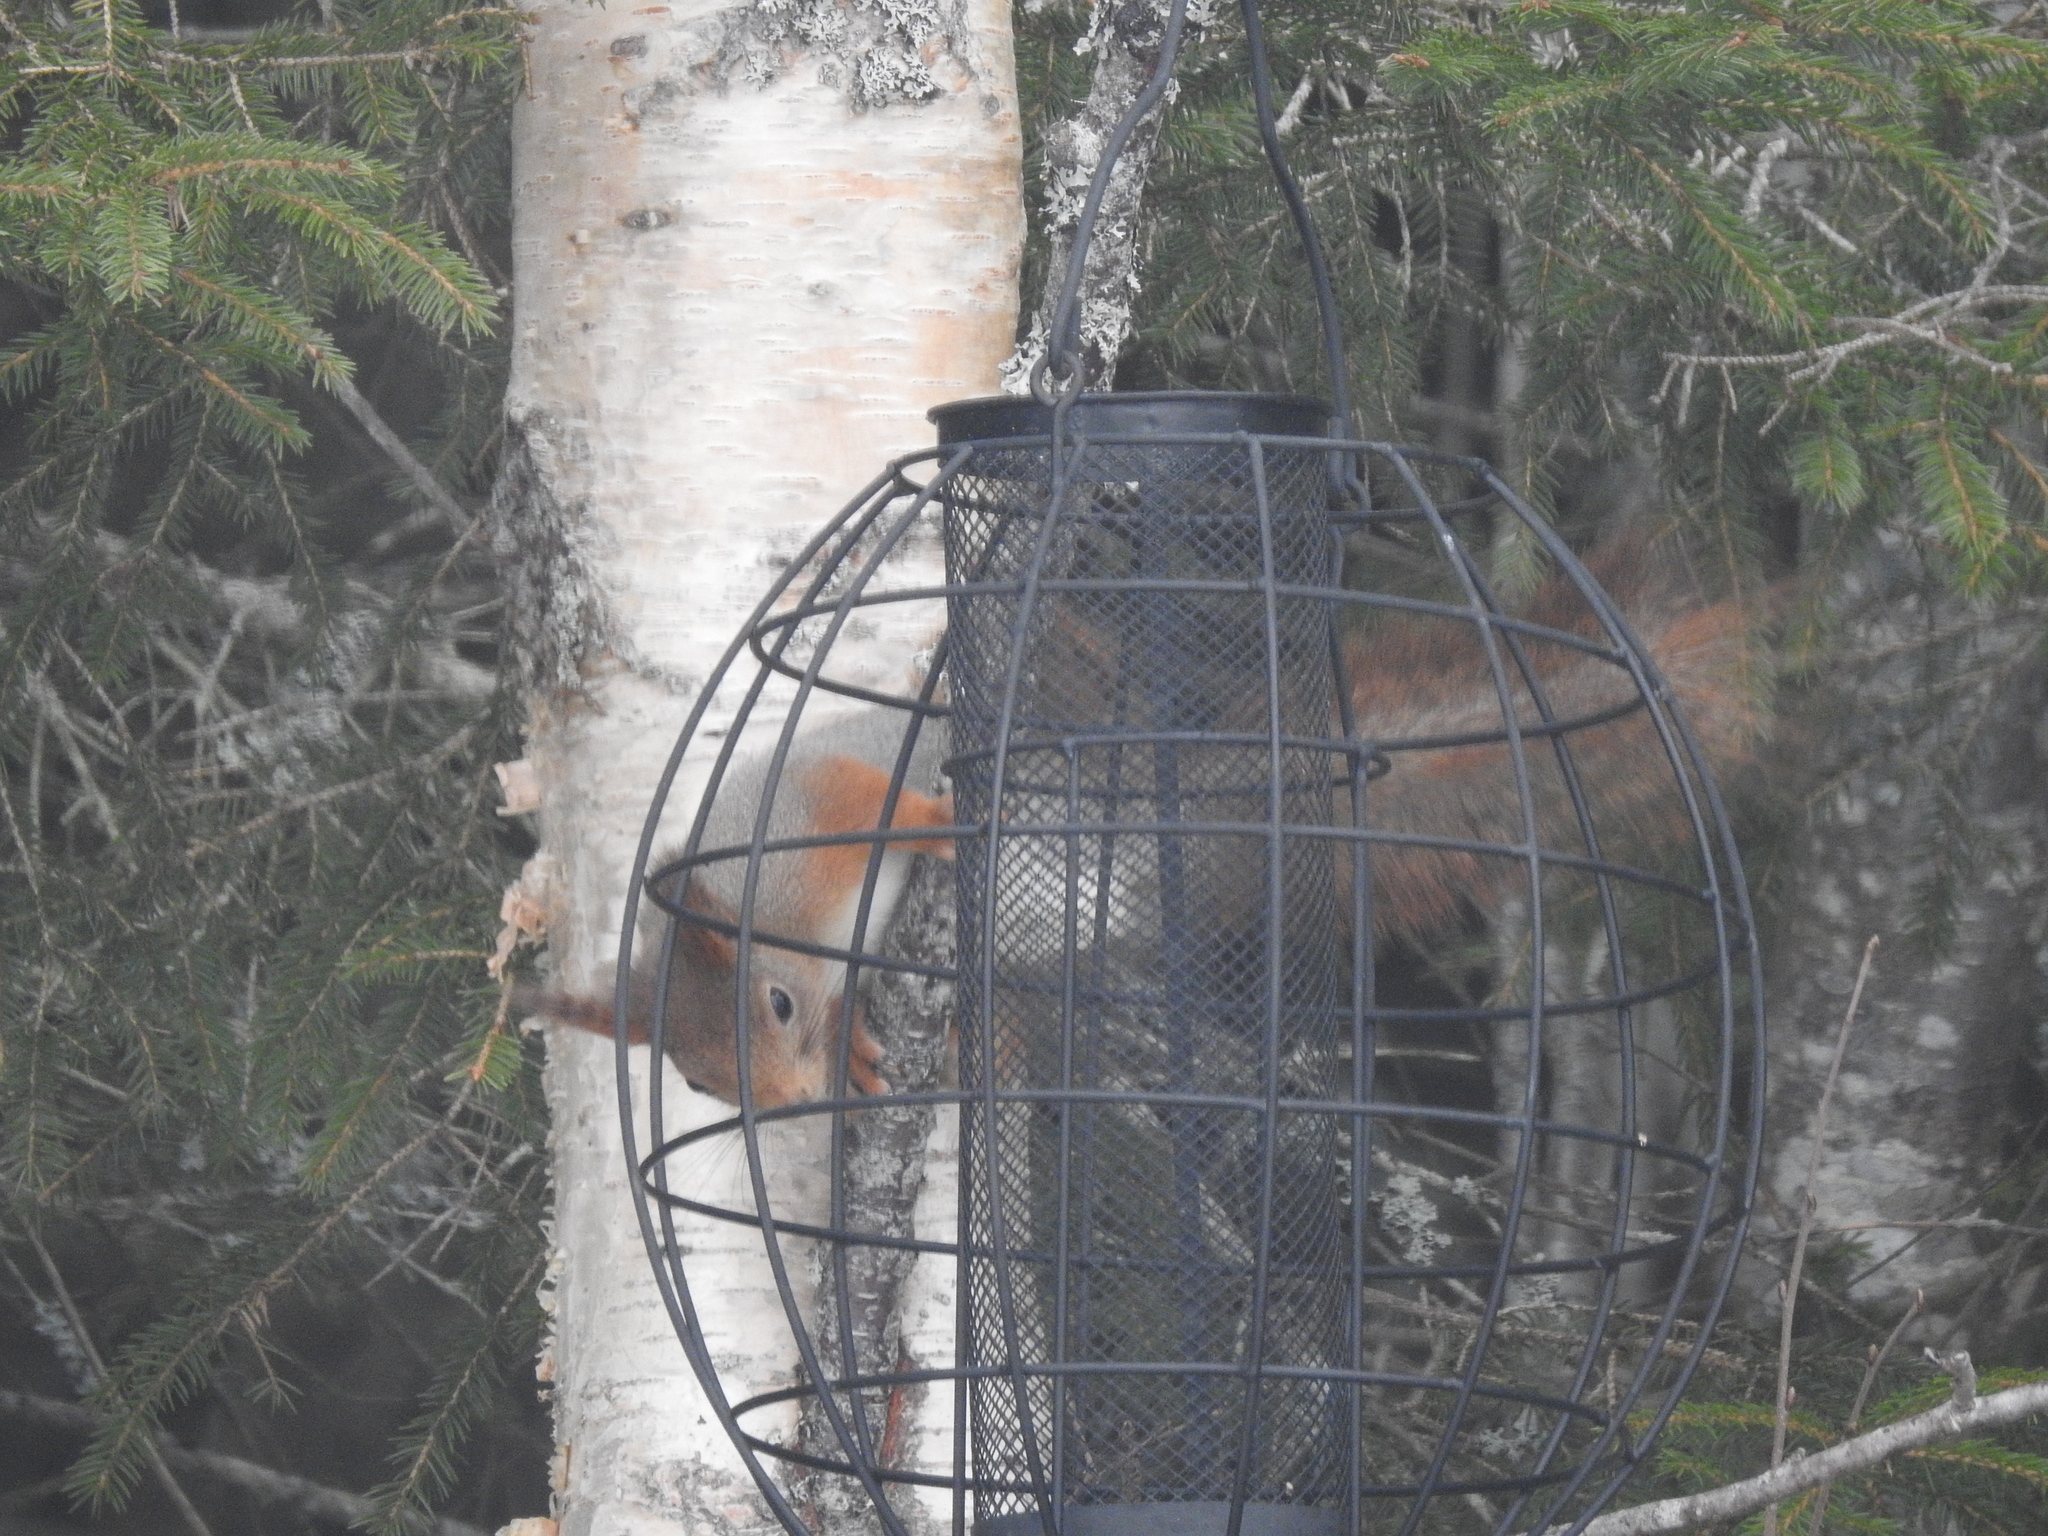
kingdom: Animalia
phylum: Chordata
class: Mammalia
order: Rodentia
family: Sciuridae
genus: Sciurus
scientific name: Sciurus vulgaris
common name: Eurasian red squirrel
